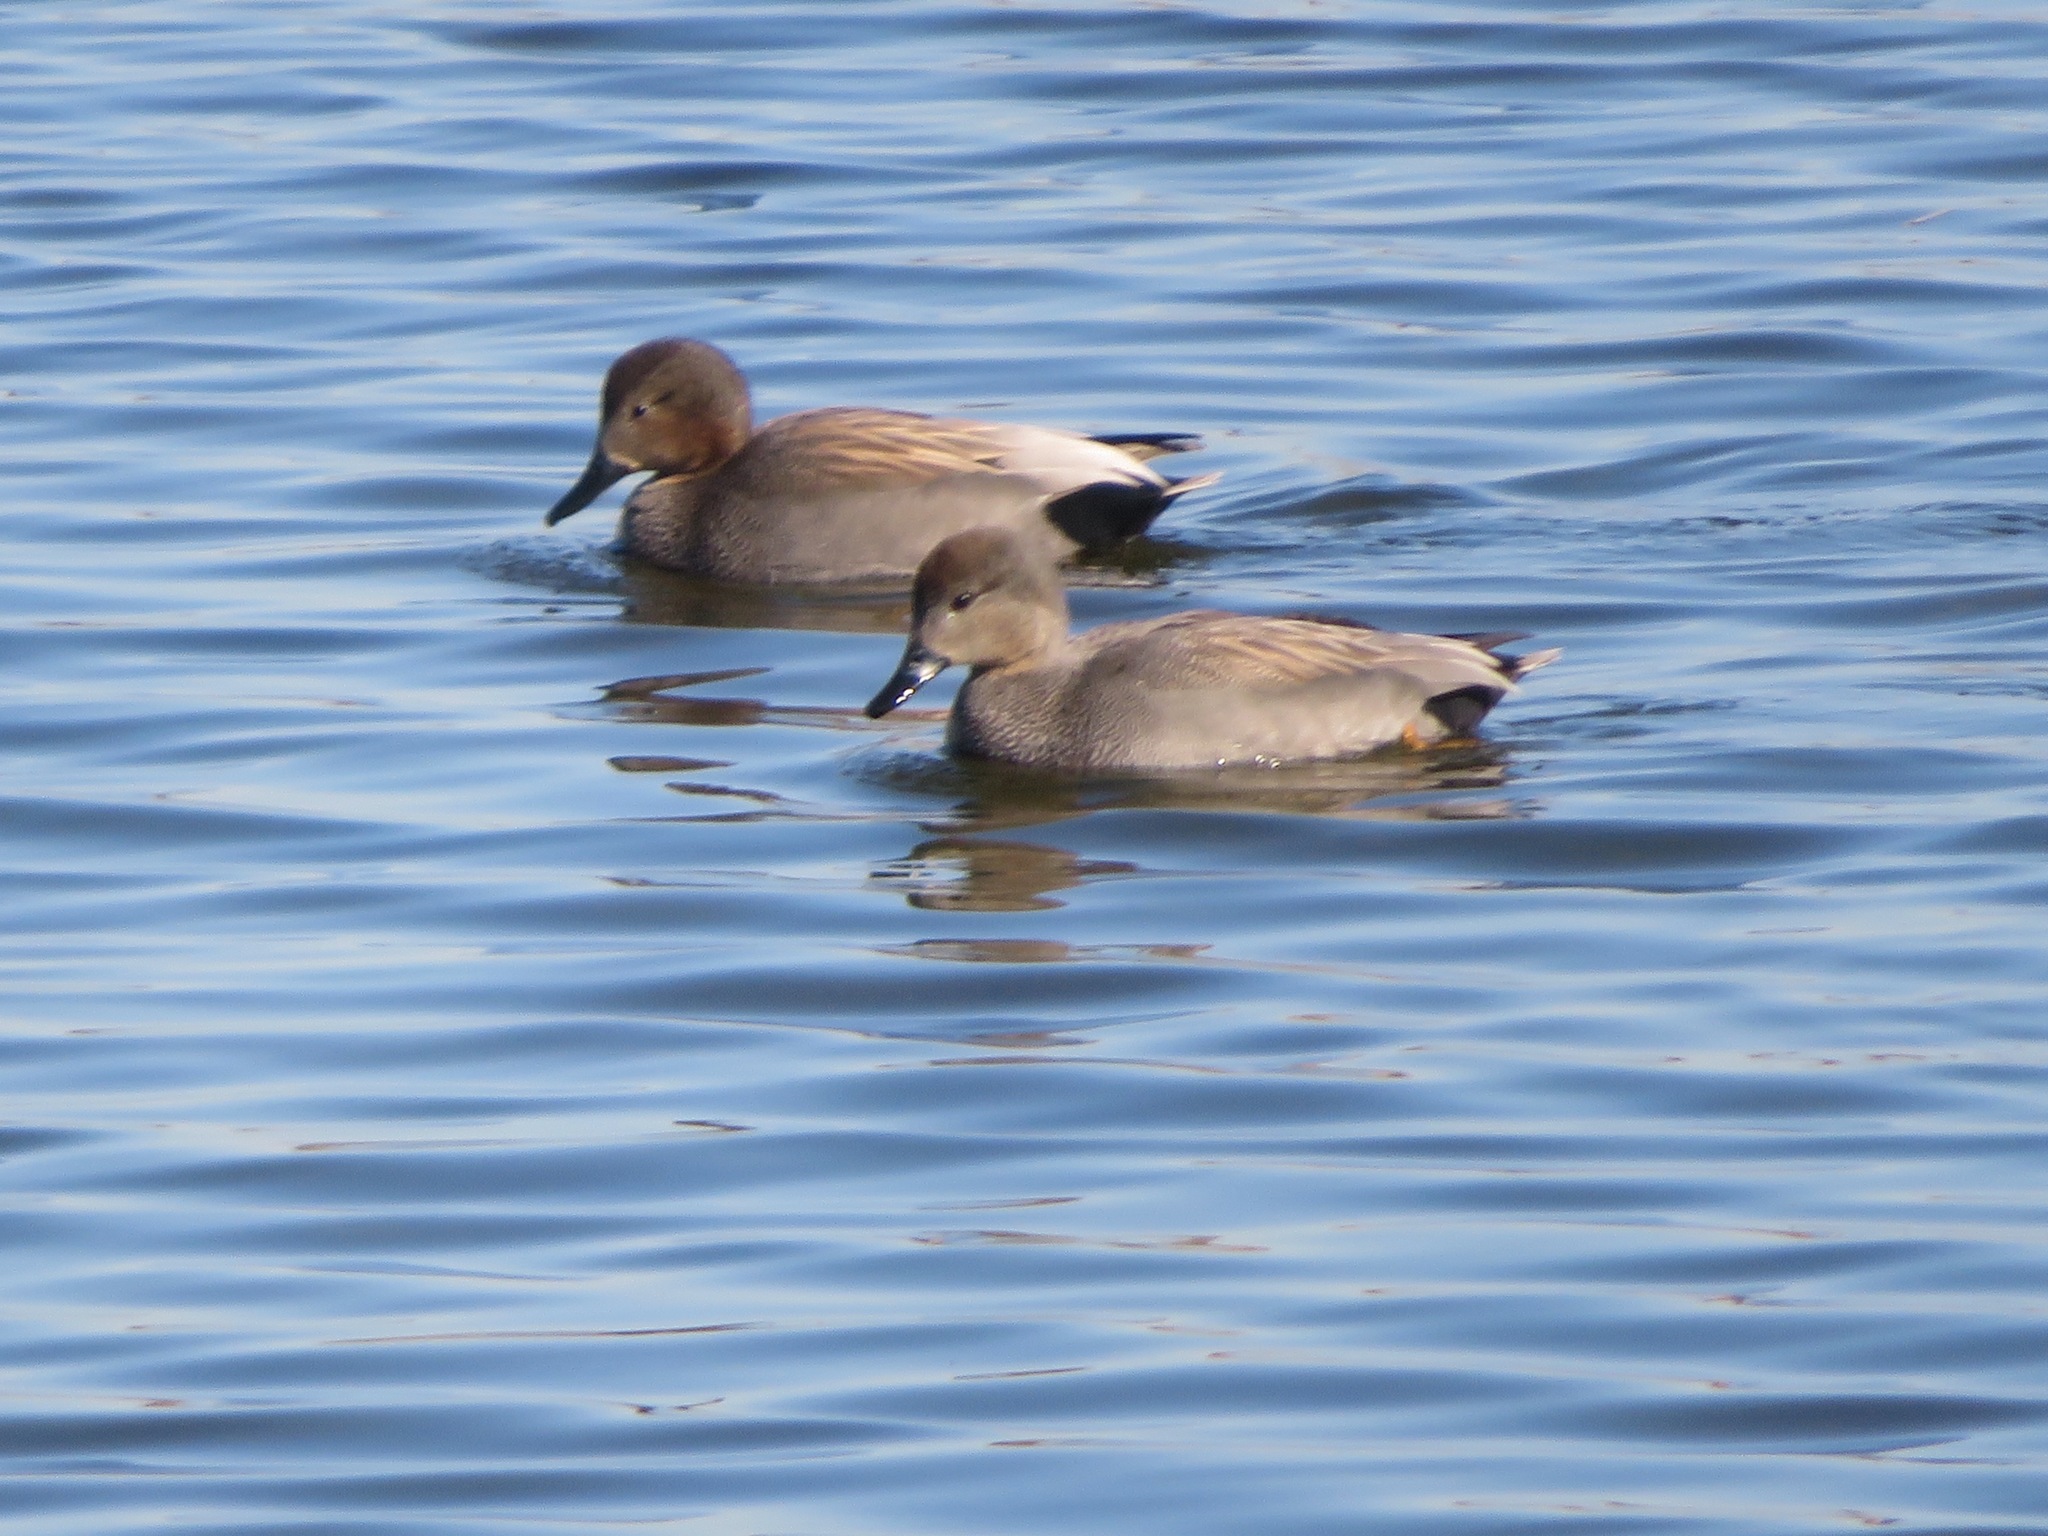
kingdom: Animalia
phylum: Chordata
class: Aves
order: Anseriformes
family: Anatidae
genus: Mareca
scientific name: Mareca strepera
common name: Gadwall
